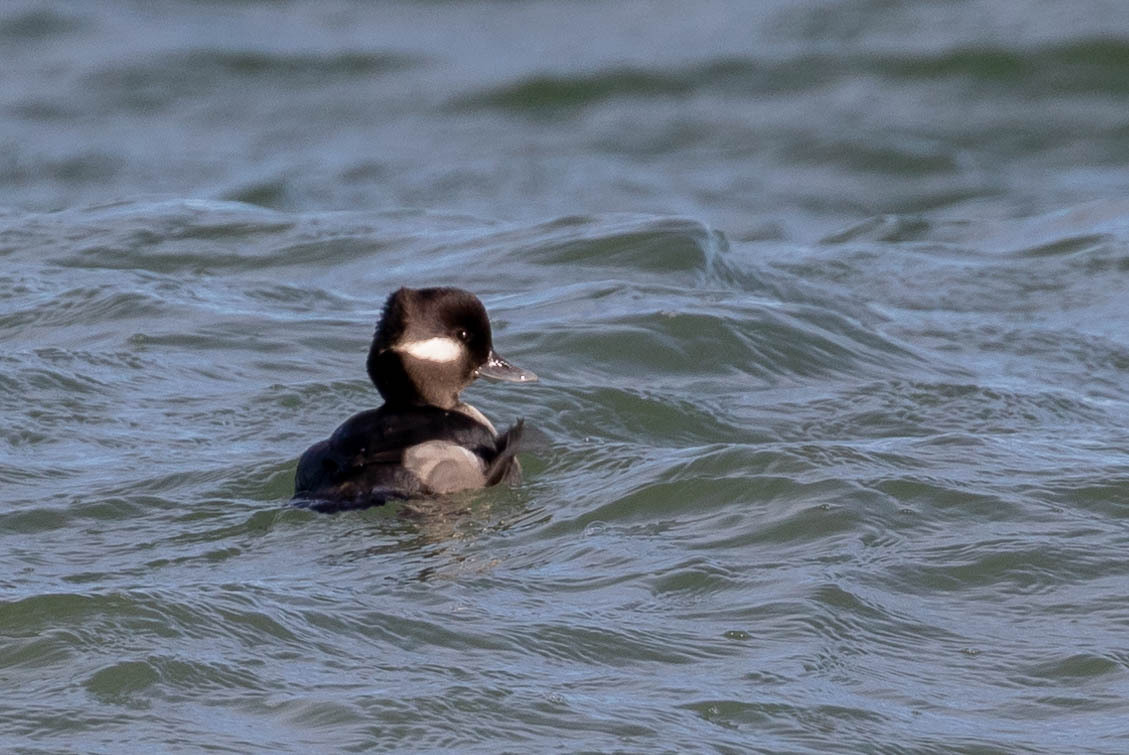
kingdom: Animalia
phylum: Chordata
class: Aves
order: Anseriformes
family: Anatidae
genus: Bucephala
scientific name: Bucephala albeola
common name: Bufflehead
